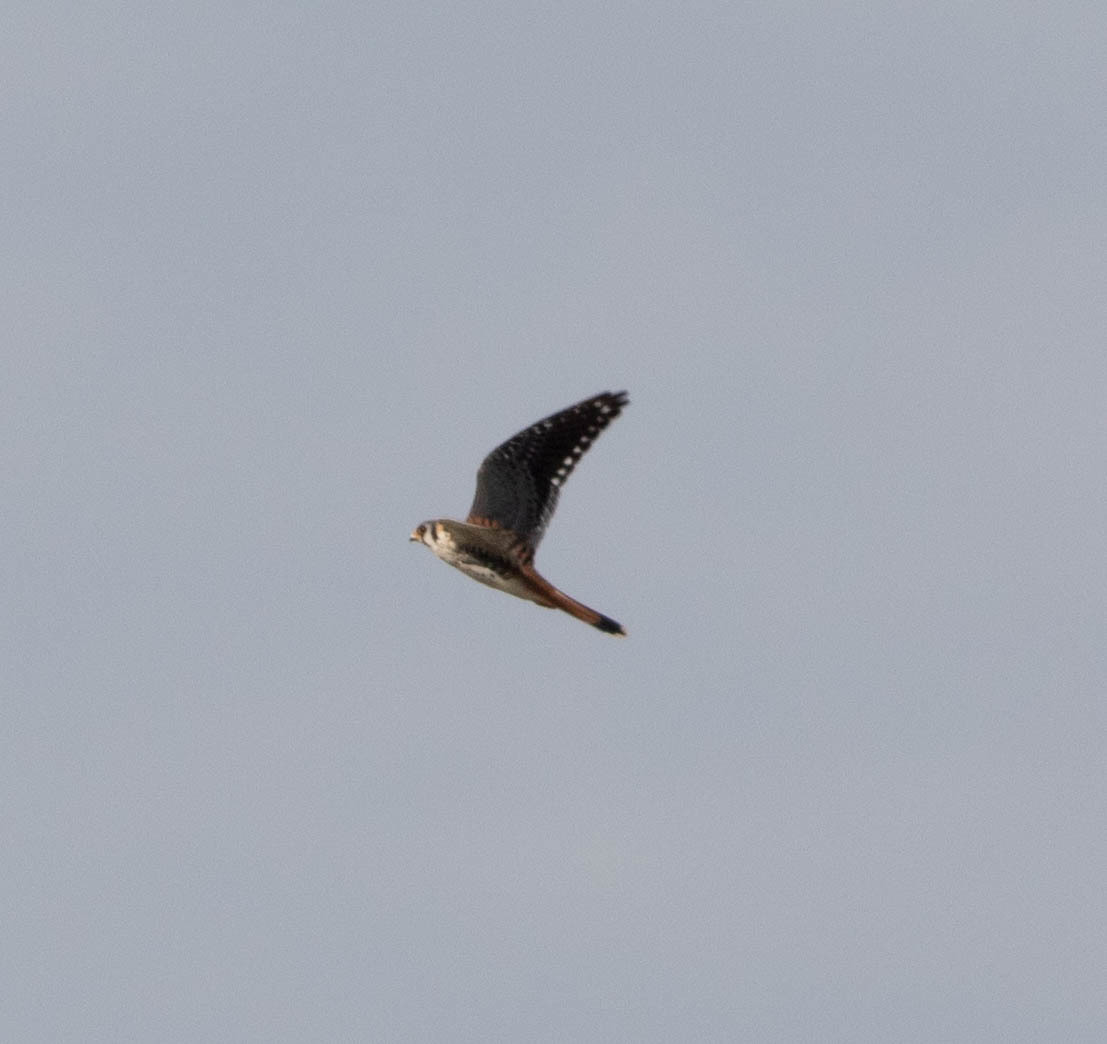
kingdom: Animalia
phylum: Chordata
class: Aves
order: Falconiformes
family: Falconidae
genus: Falco
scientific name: Falco sparverius
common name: American kestrel
